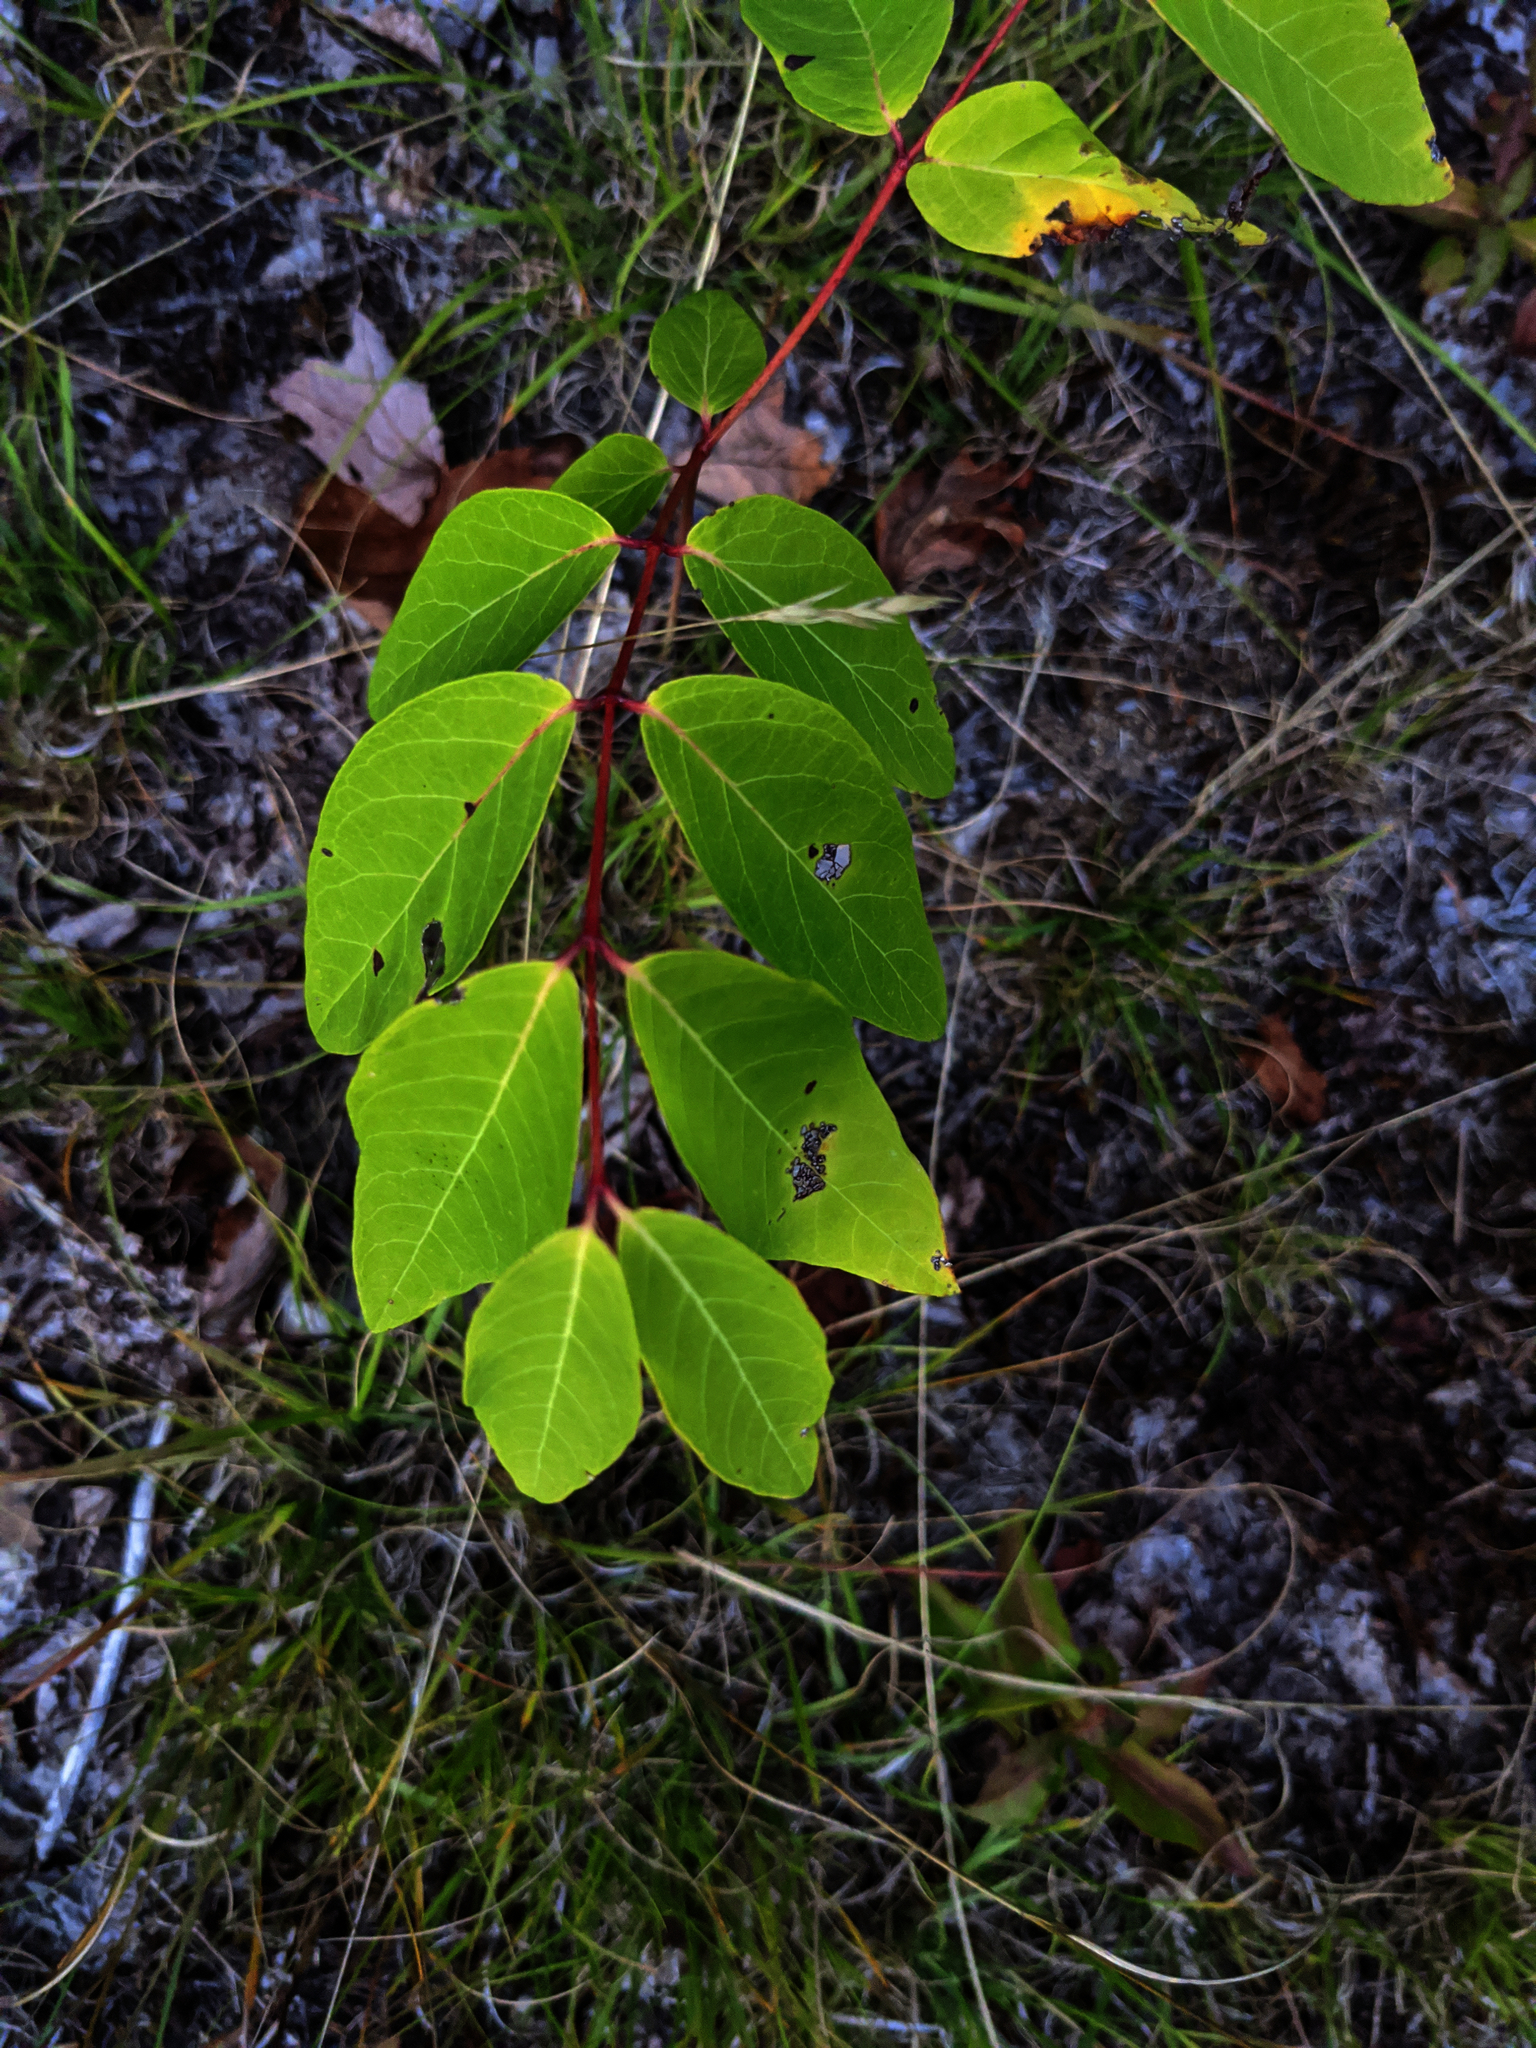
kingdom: Plantae
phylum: Tracheophyta
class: Magnoliopsida
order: Gentianales
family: Apocynaceae
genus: Apocynum
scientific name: Apocynum androsaemifolium
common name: Spreading dogbane
